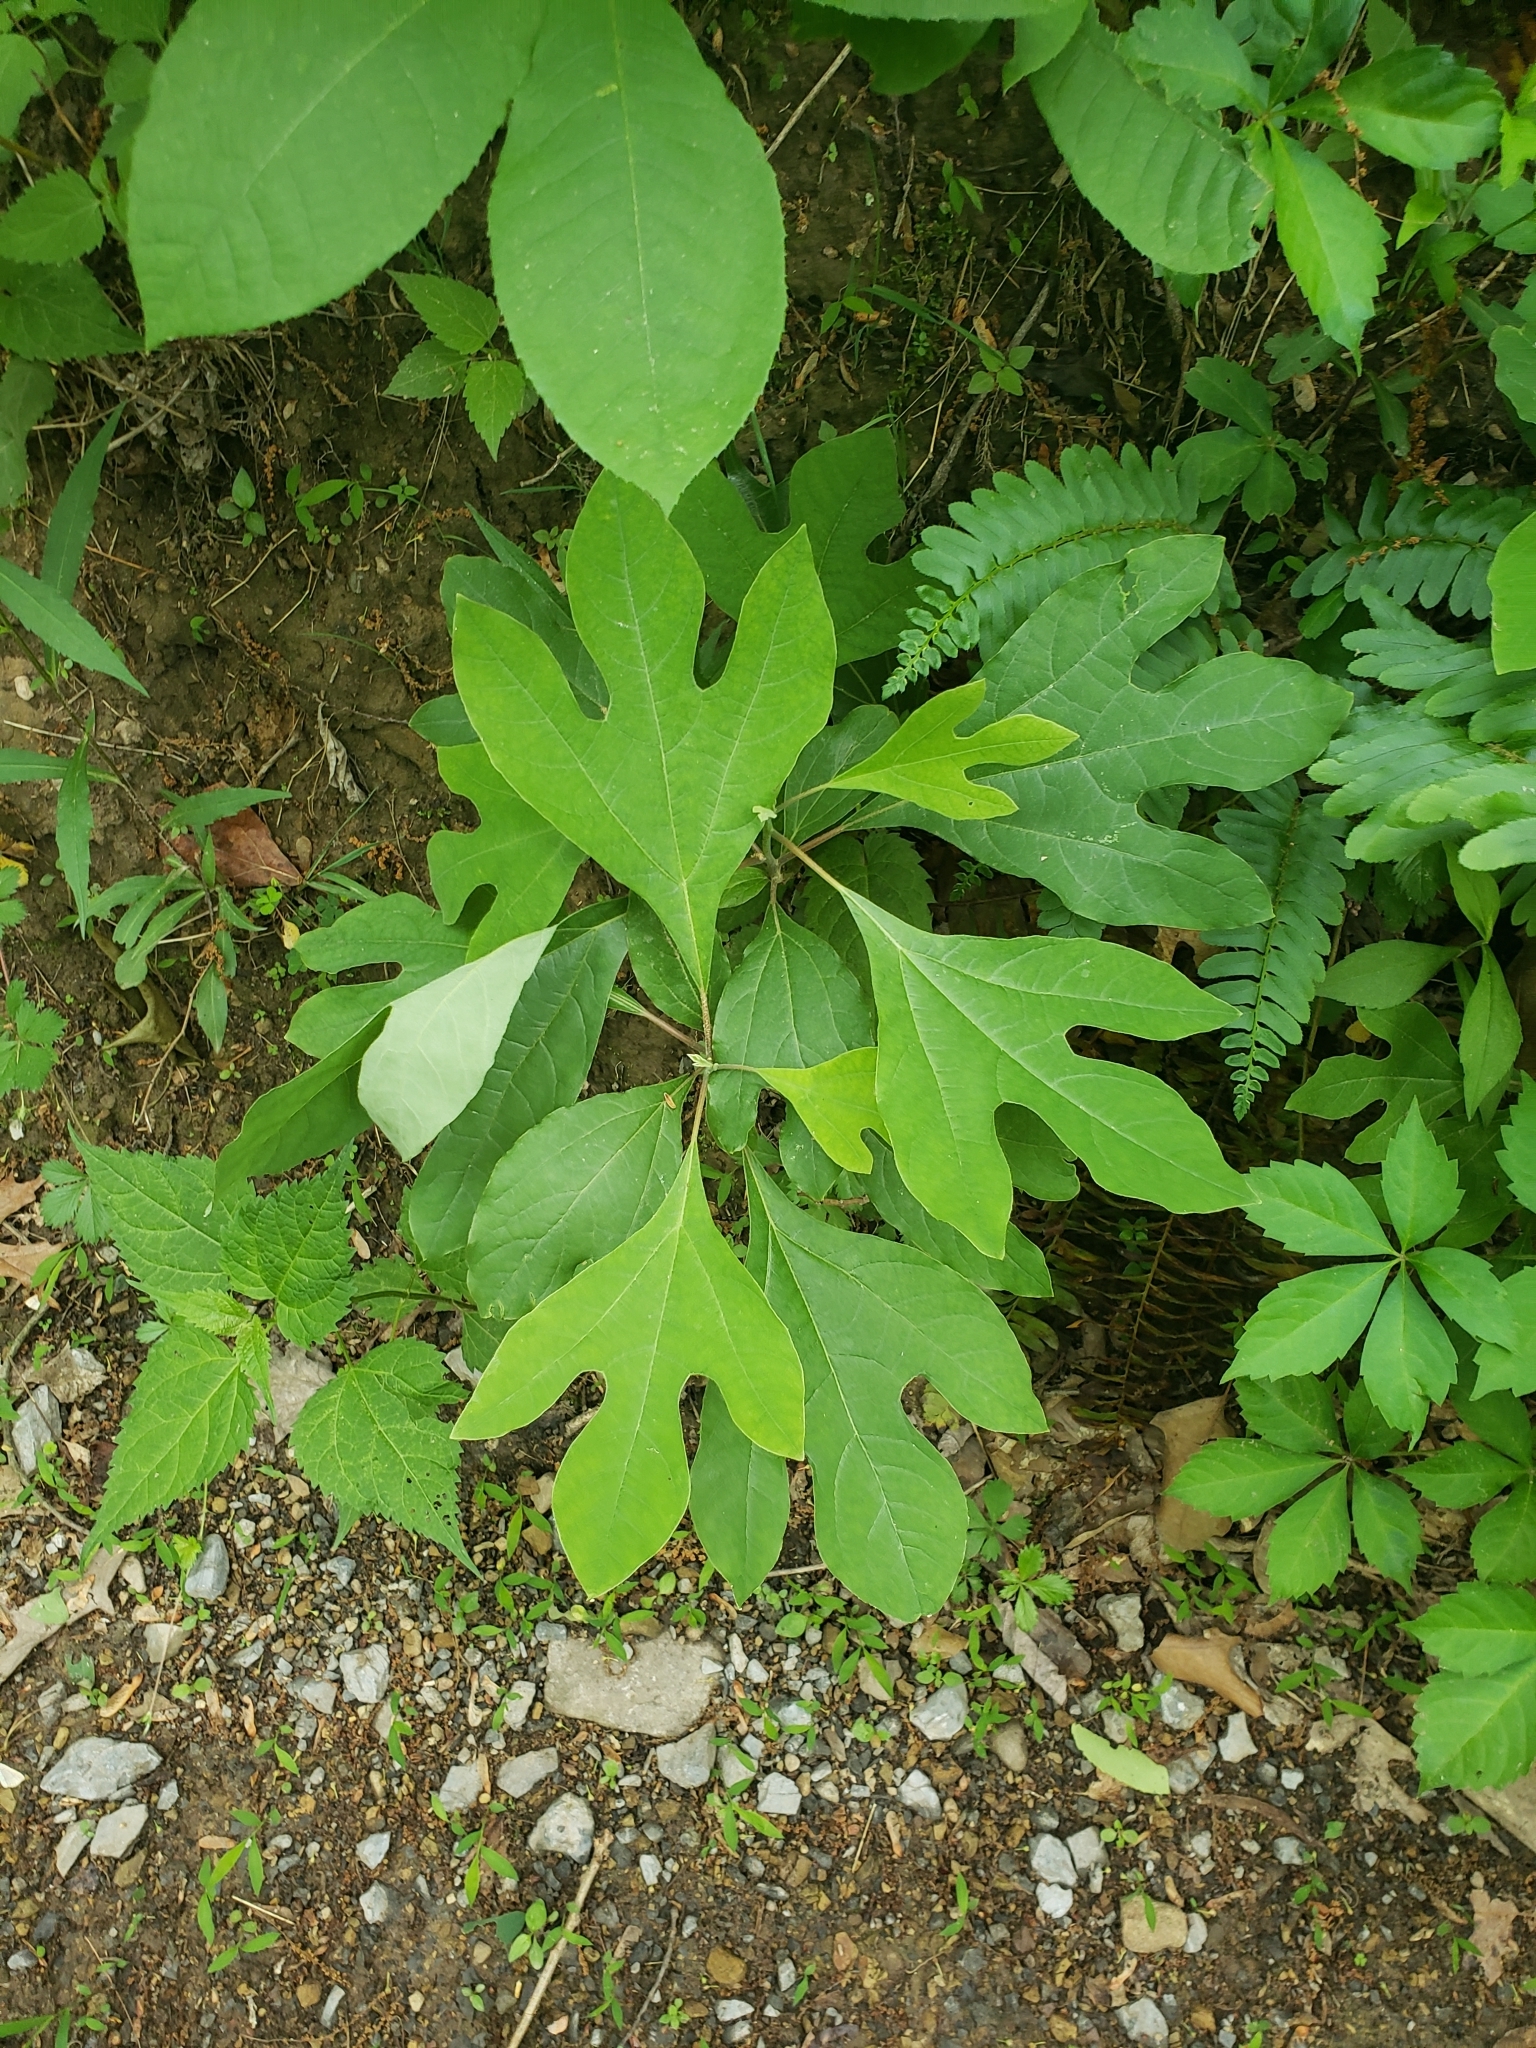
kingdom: Plantae
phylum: Tracheophyta
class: Magnoliopsida
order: Laurales
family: Lauraceae
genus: Sassafras
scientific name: Sassafras albidum
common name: Sassafras
